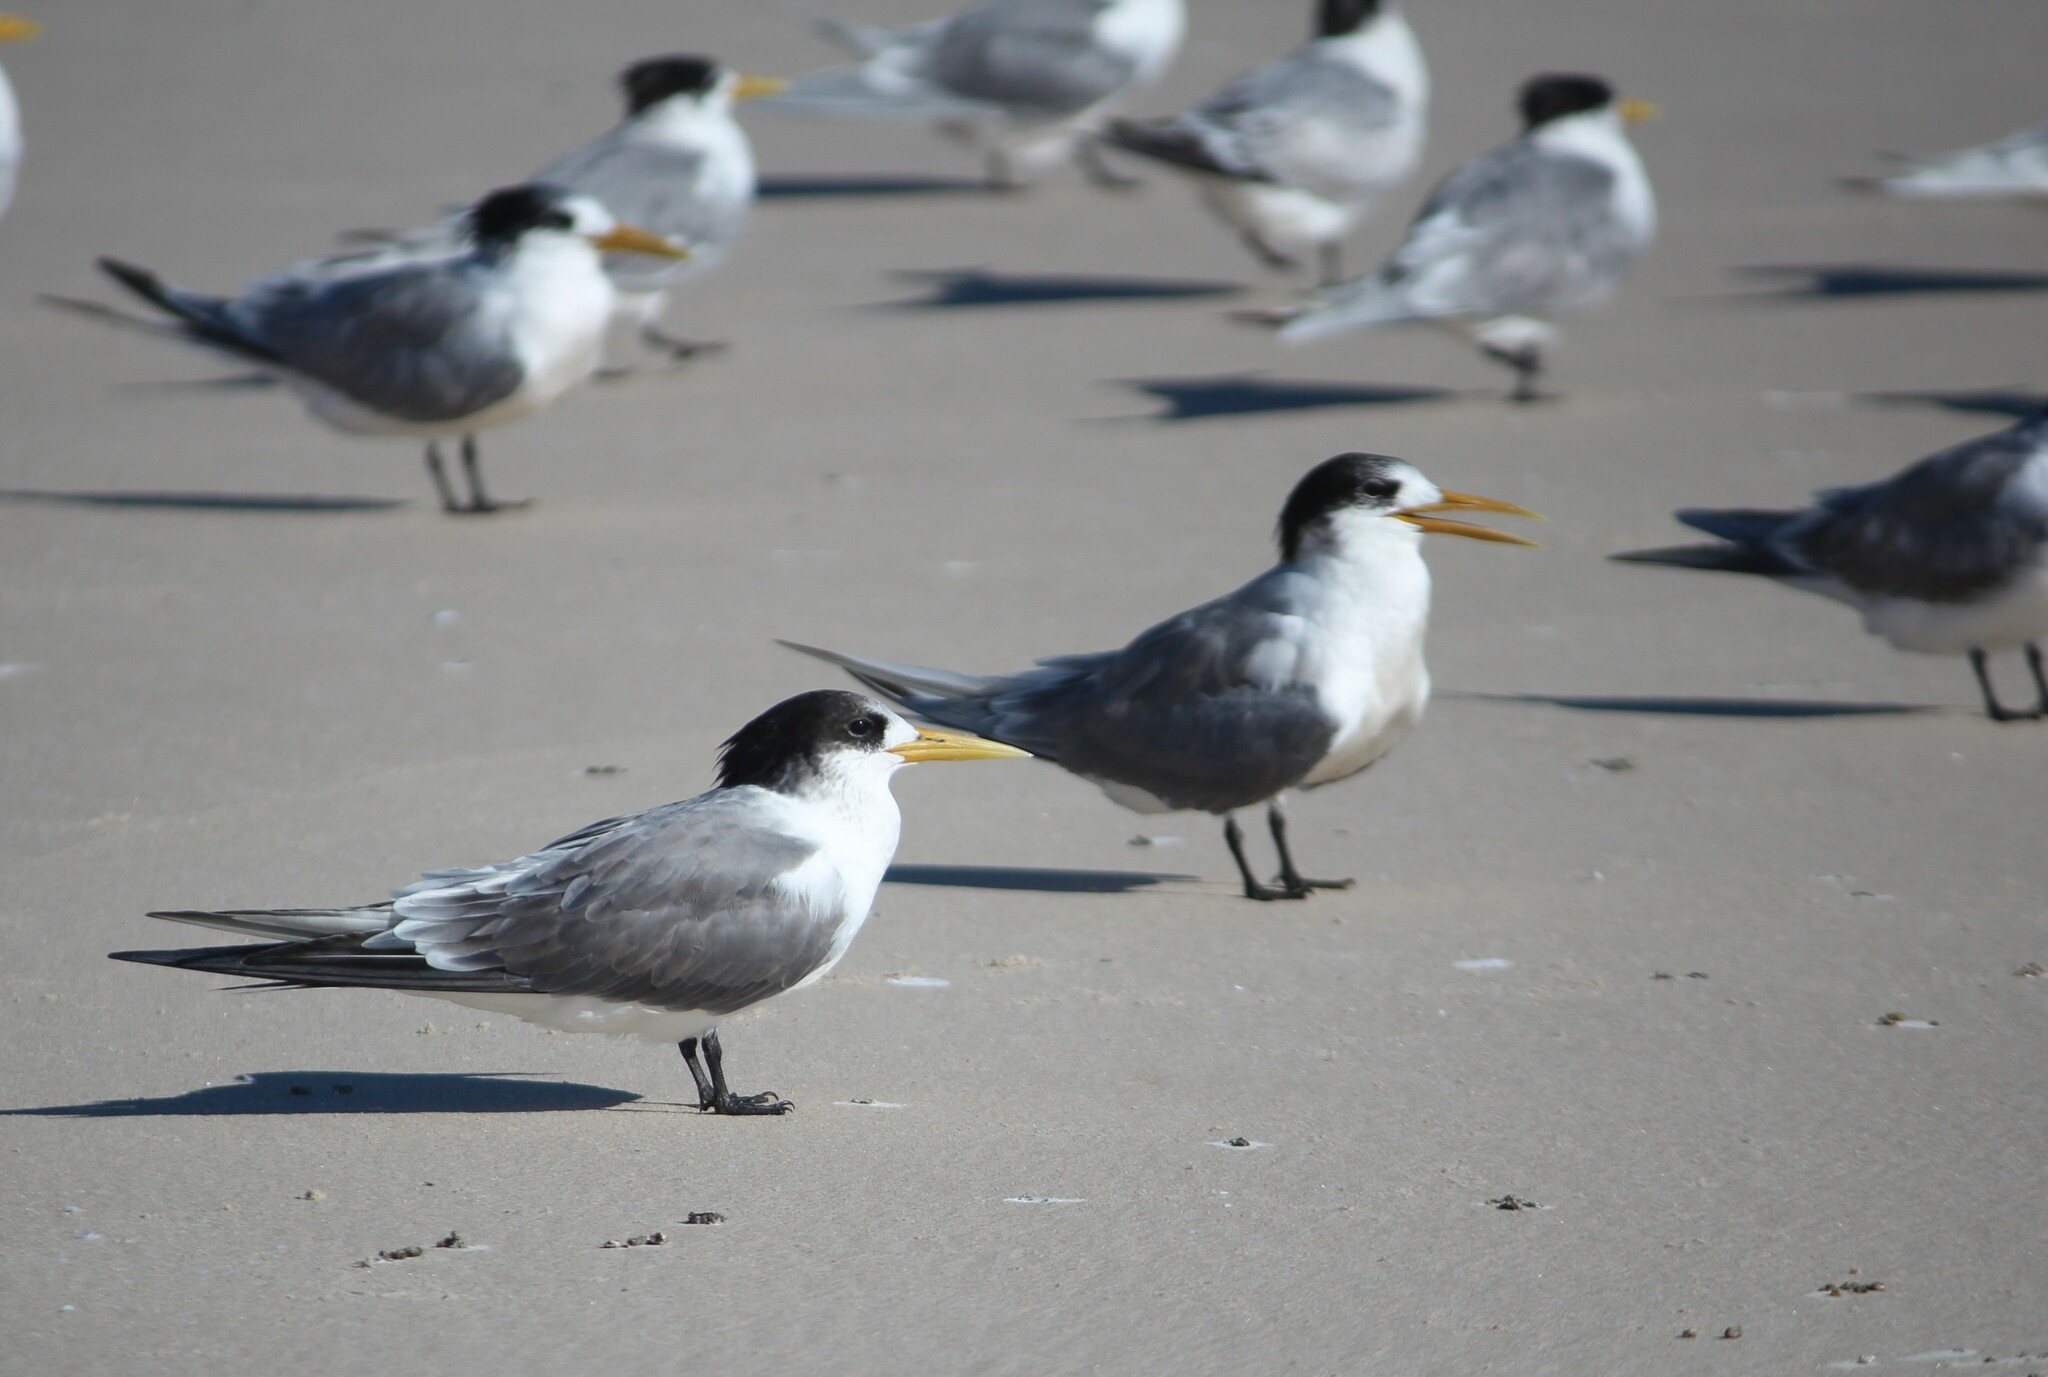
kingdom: Animalia
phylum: Chordata
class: Aves
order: Charadriiformes
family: Laridae
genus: Thalasseus
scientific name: Thalasseus bergii
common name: Greater crested tern
